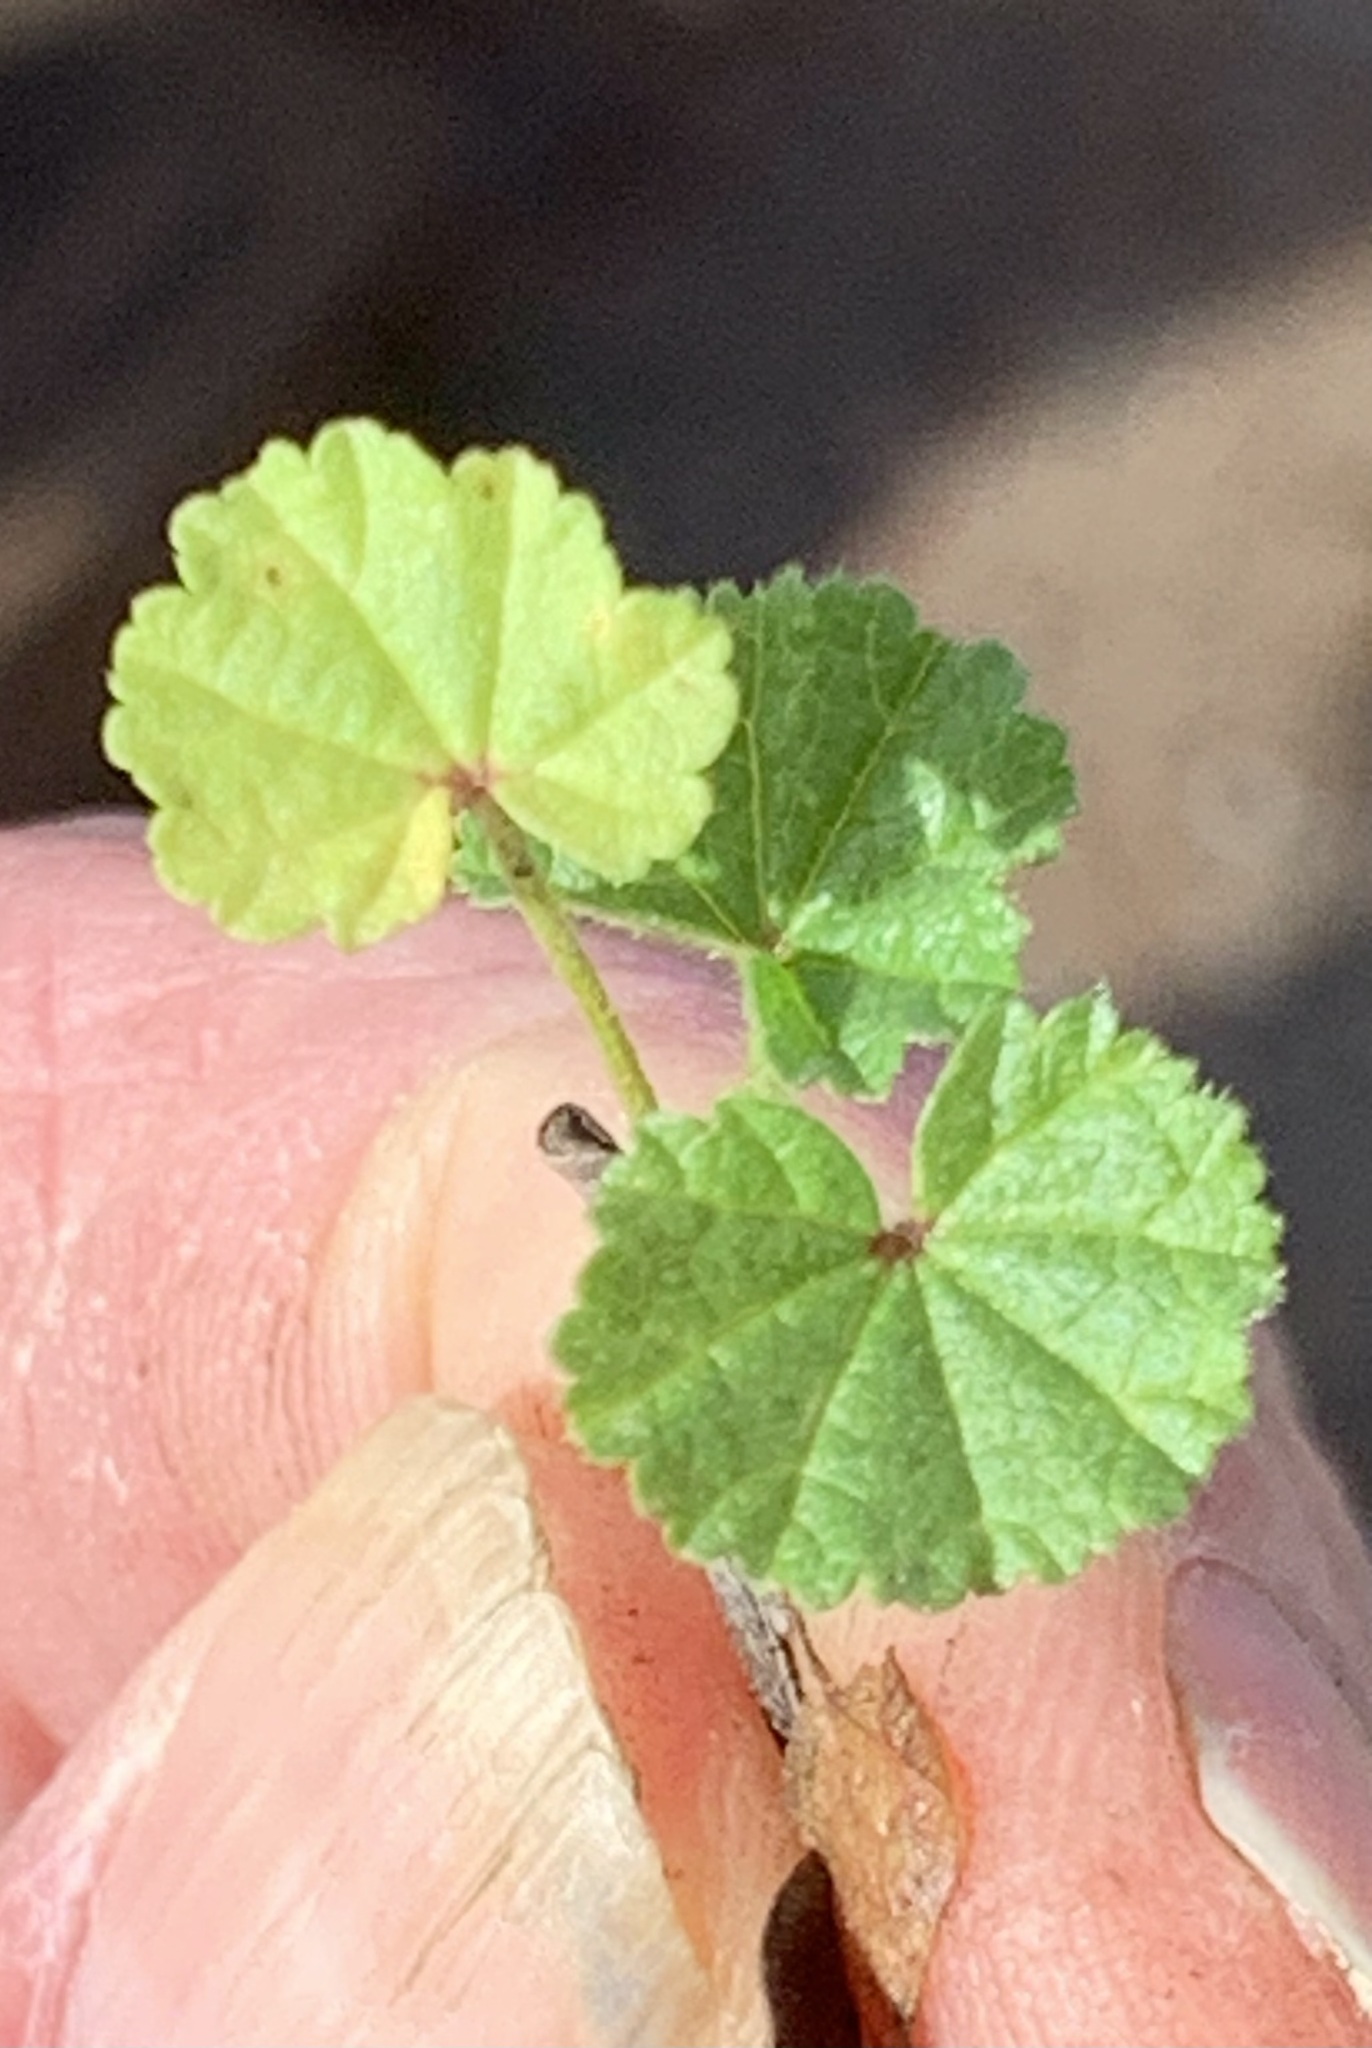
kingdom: Plantae
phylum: Tracheophyta
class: Magnoliopsida
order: Malvales
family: Malvaceae
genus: Malva
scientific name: Malva
